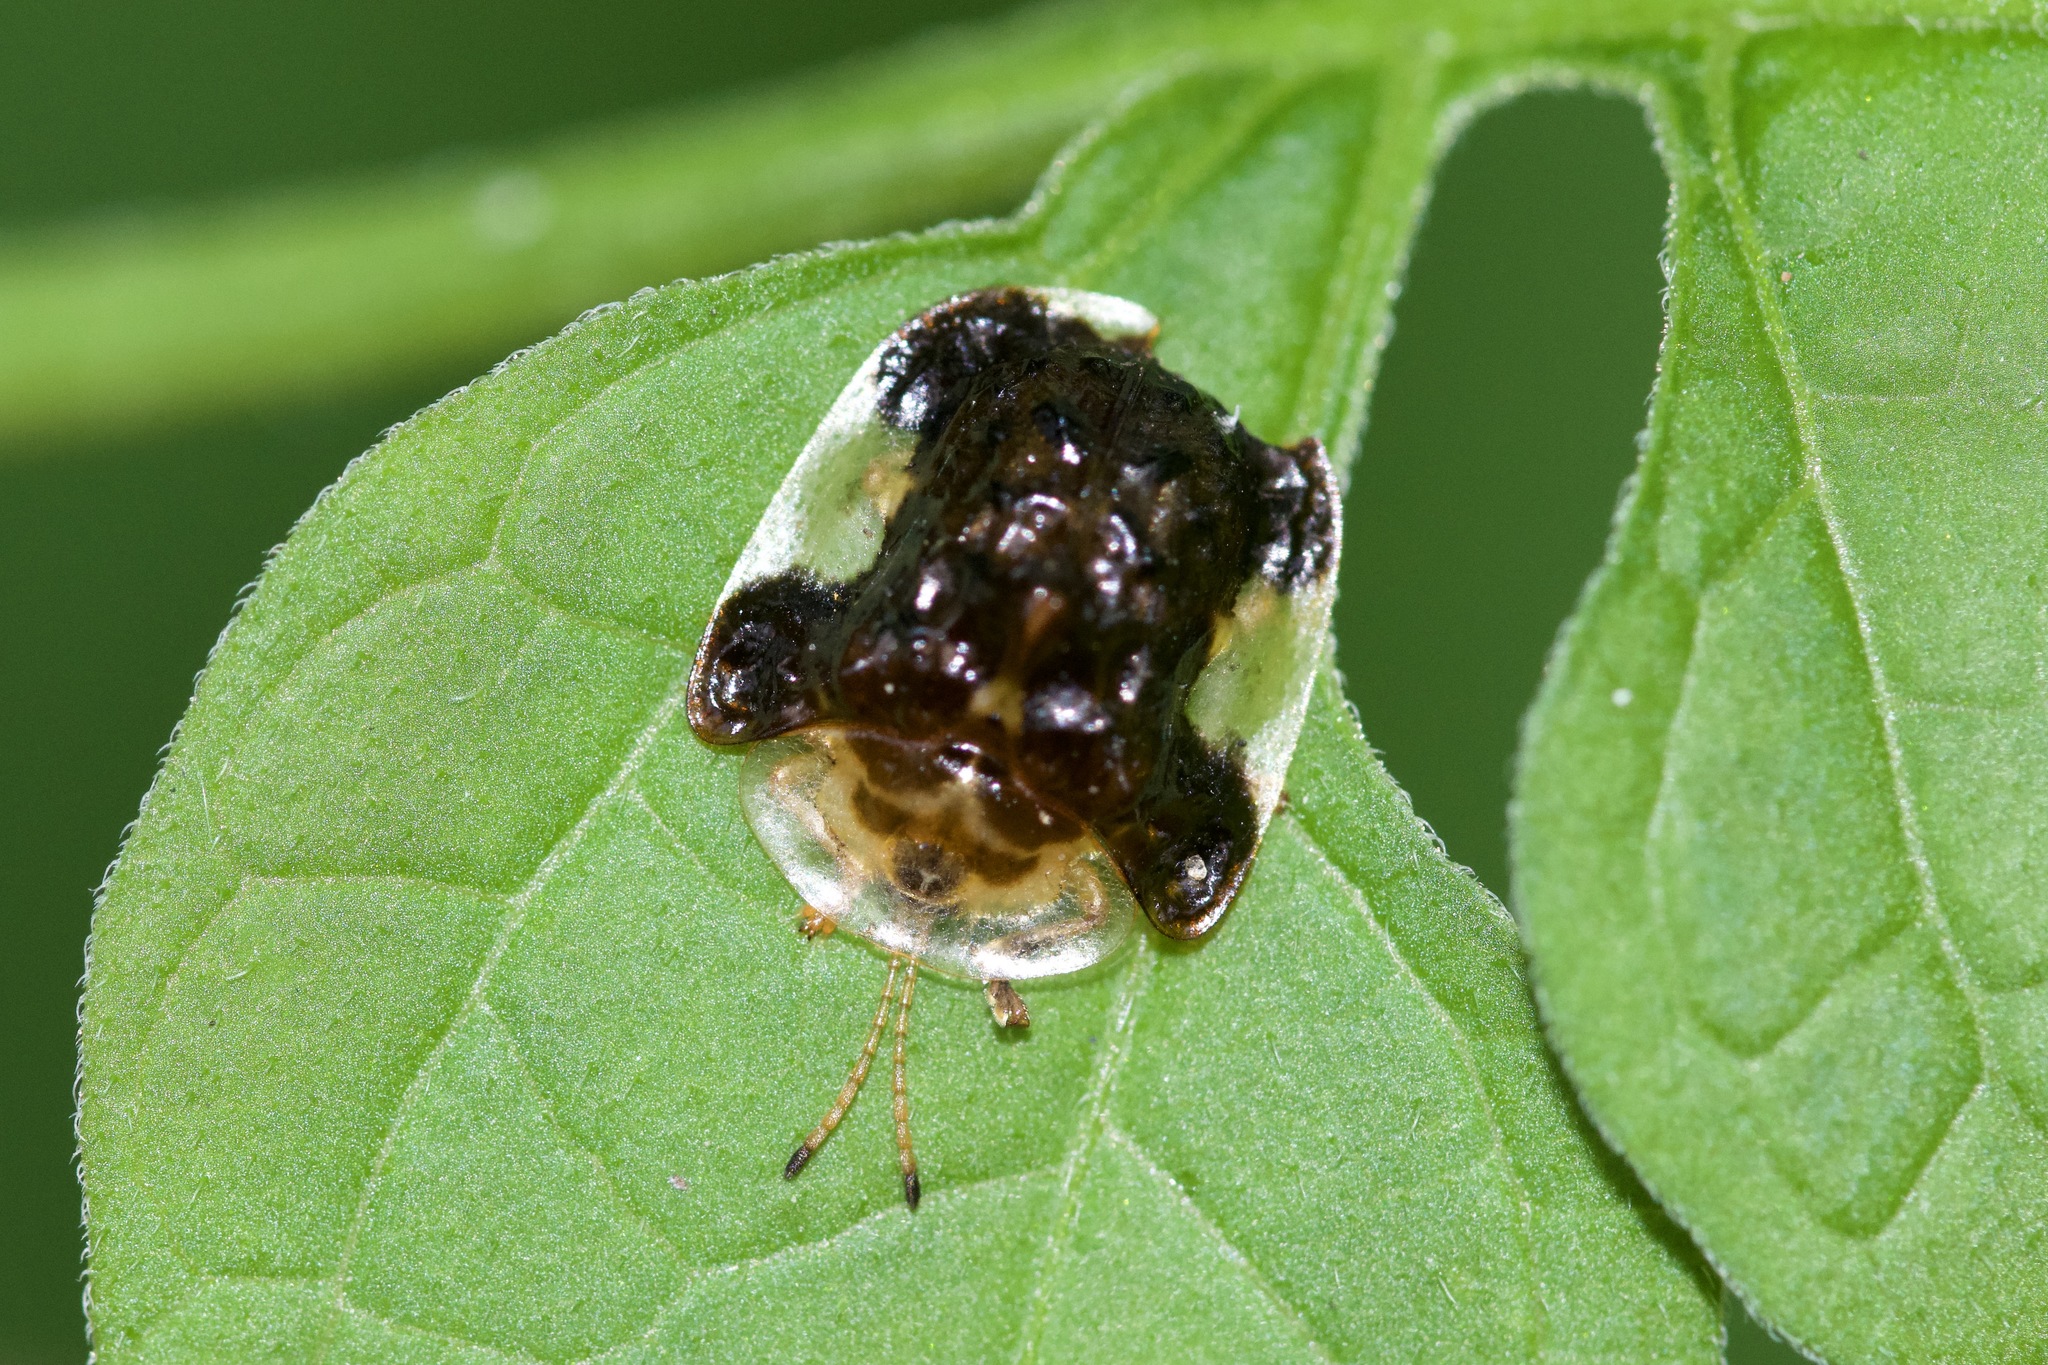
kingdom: Animalia
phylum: Arthropoda
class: Insecta
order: Coleoptera
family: Chrysomelidae
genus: Helocassis
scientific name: Helocassis clavata
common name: Clavate tortoise beetle
